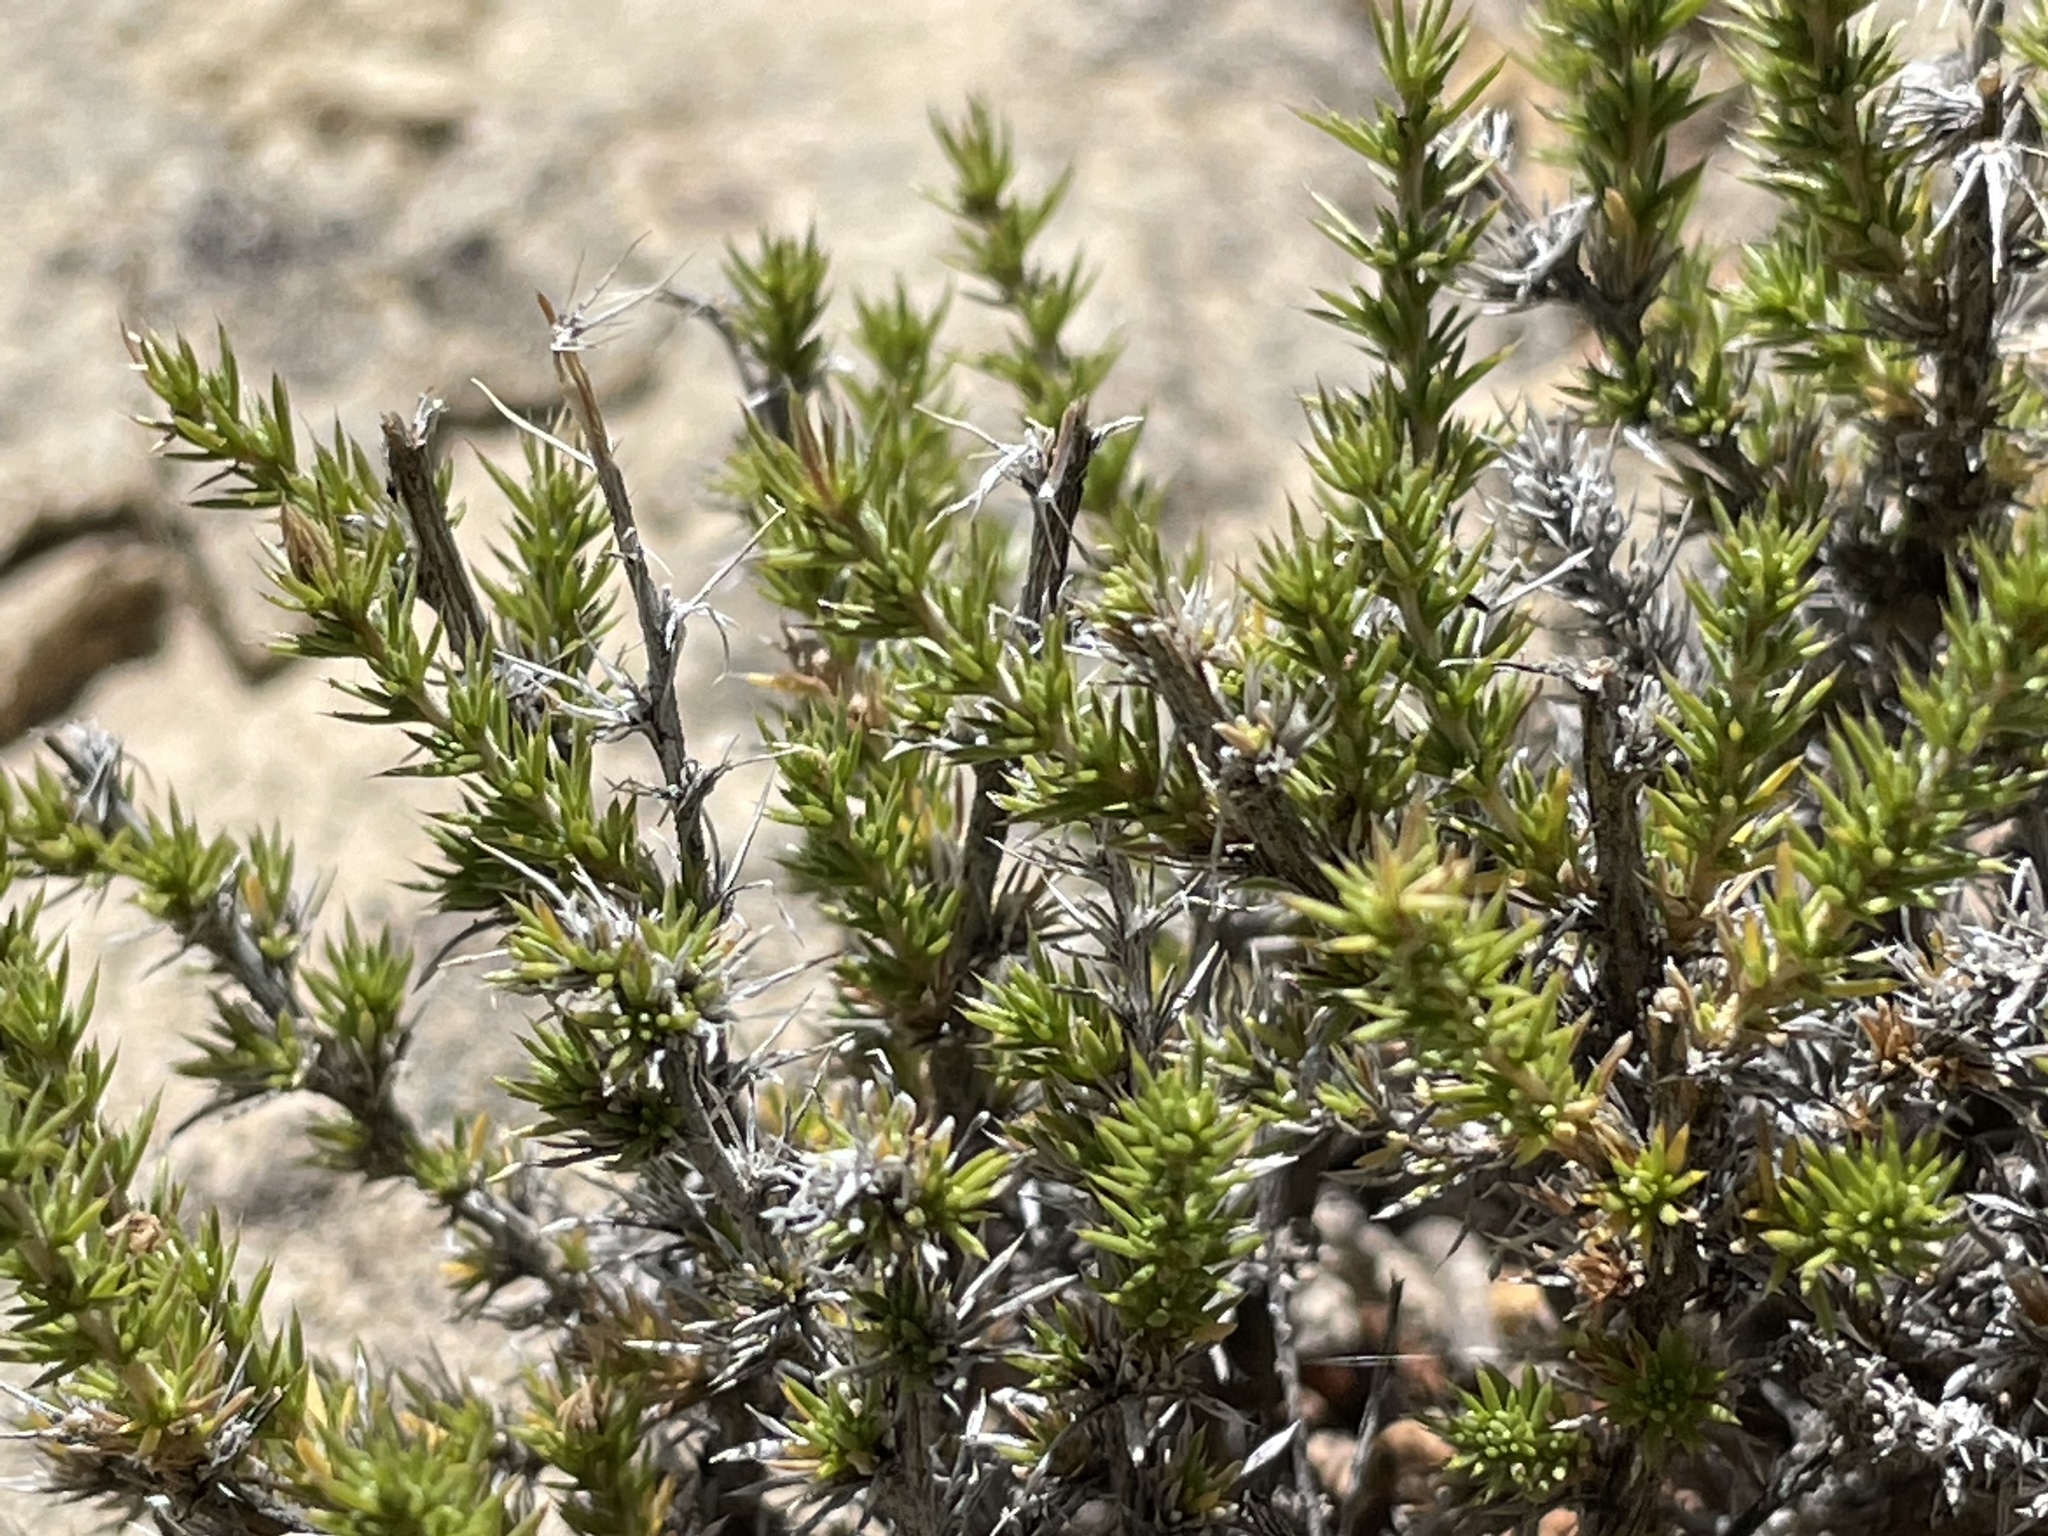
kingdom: Plantae
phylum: Tracheophyta
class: Magnoliopsida
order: Ericales
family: Polemoniaceae
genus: Linanthus
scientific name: Linanthus pungens
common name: Granite prickly phlox
